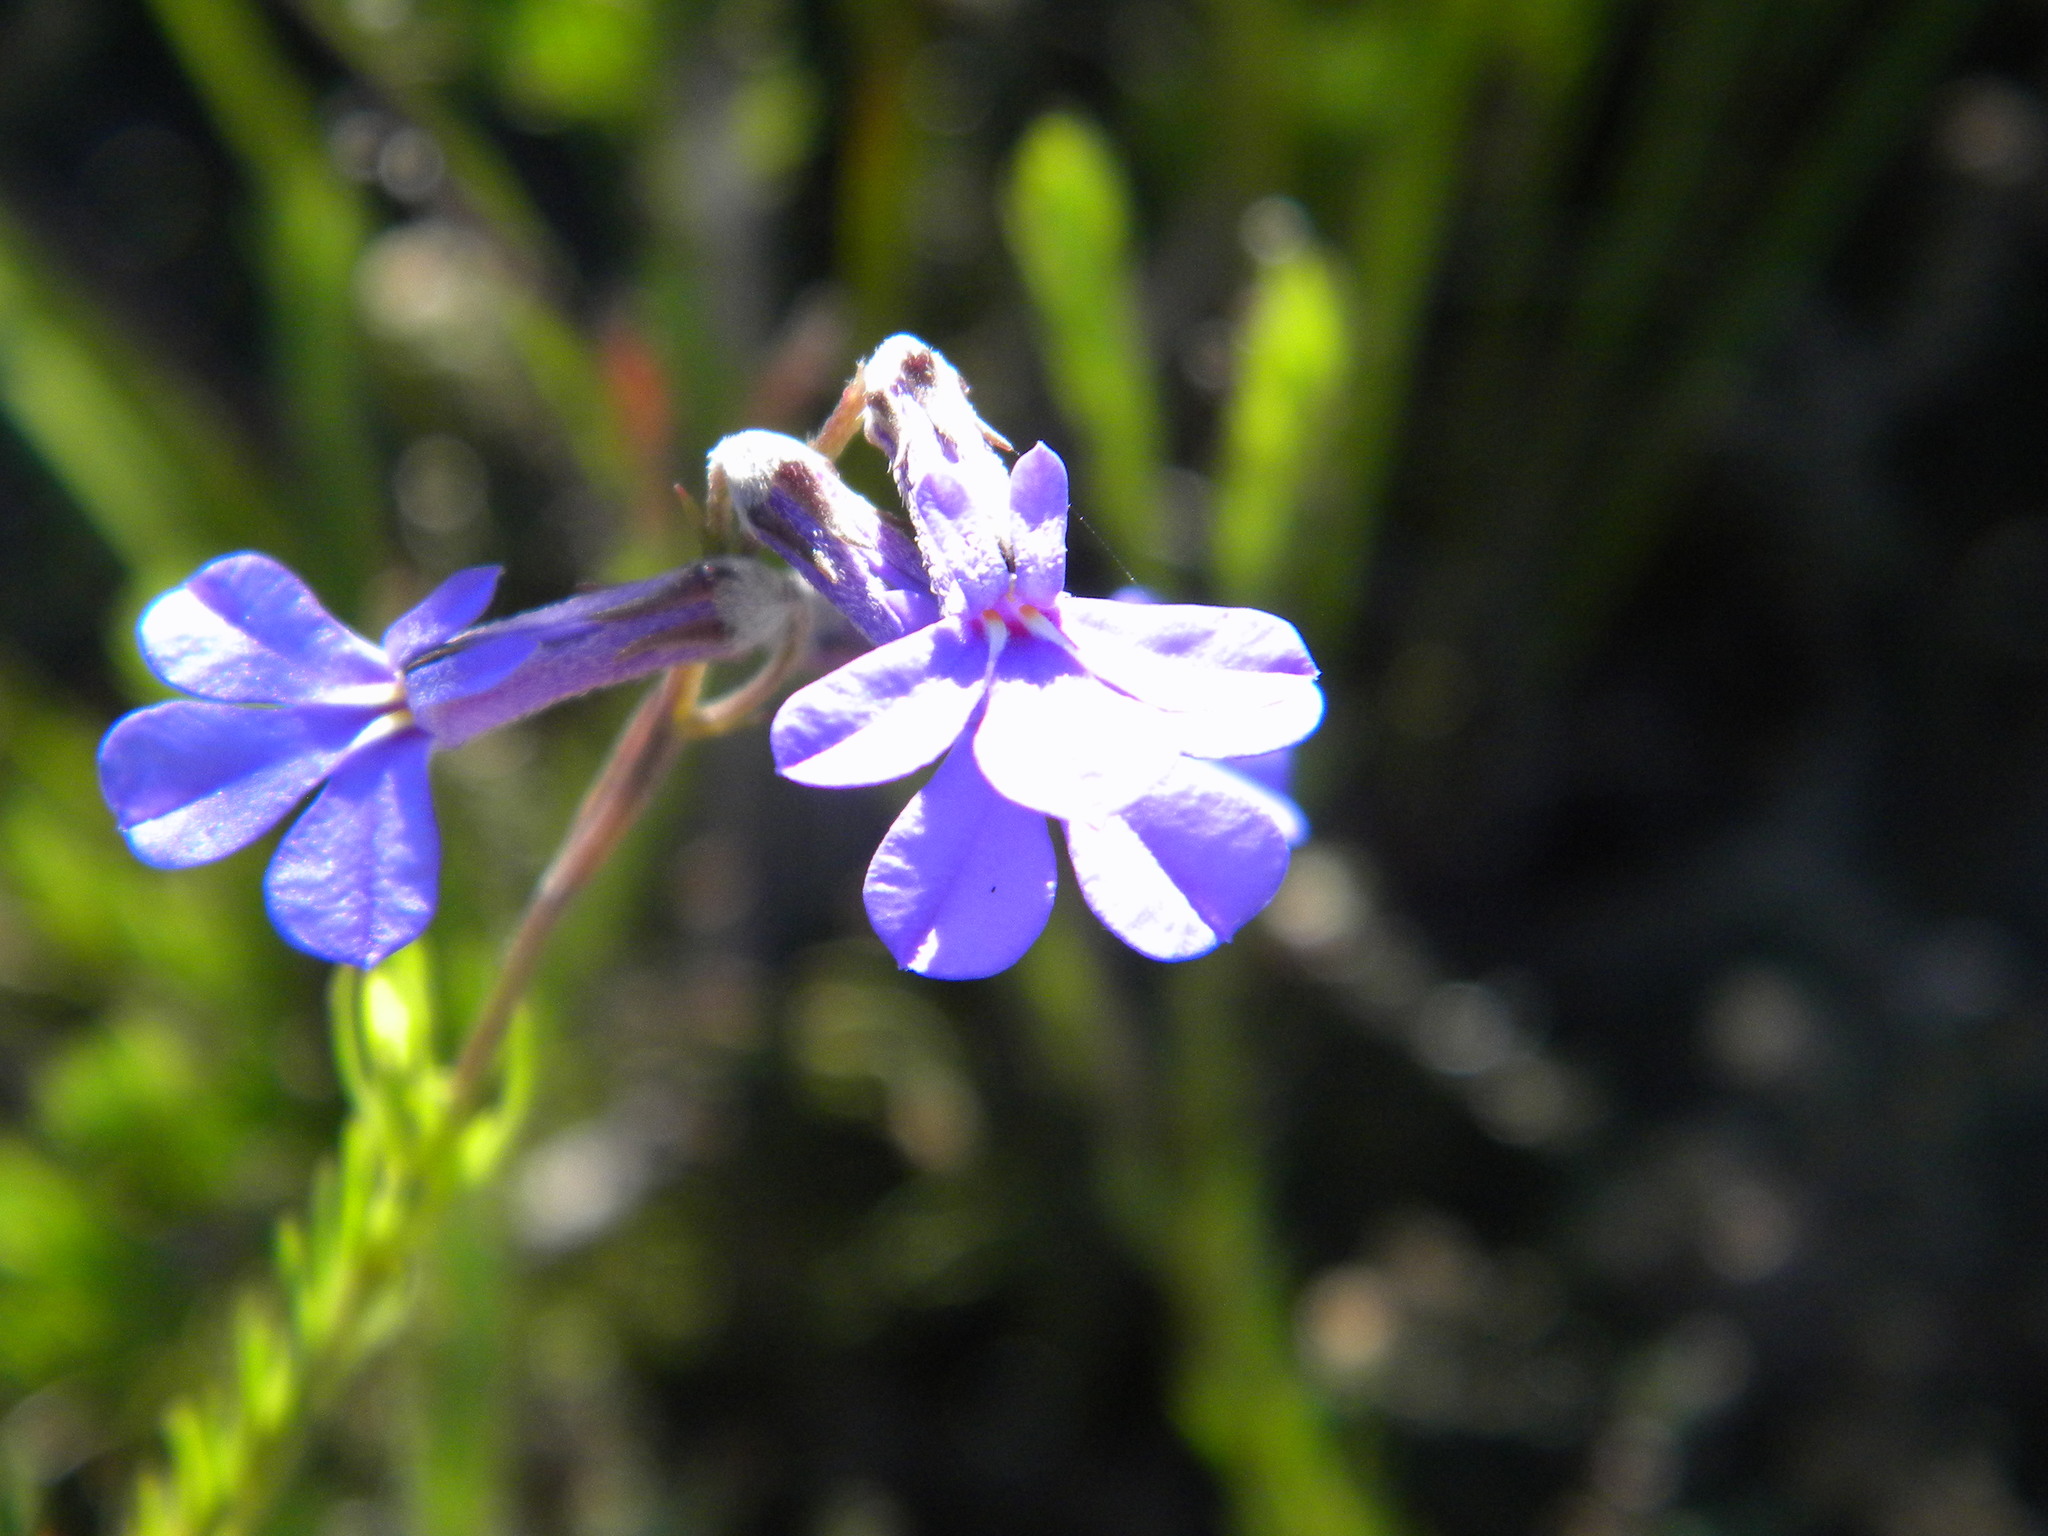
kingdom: Plantae
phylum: Tracheophyta
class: Magnoliopsida
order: Asterales
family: Campanulaceae
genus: Lobelia
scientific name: Lobelia pinifolia
